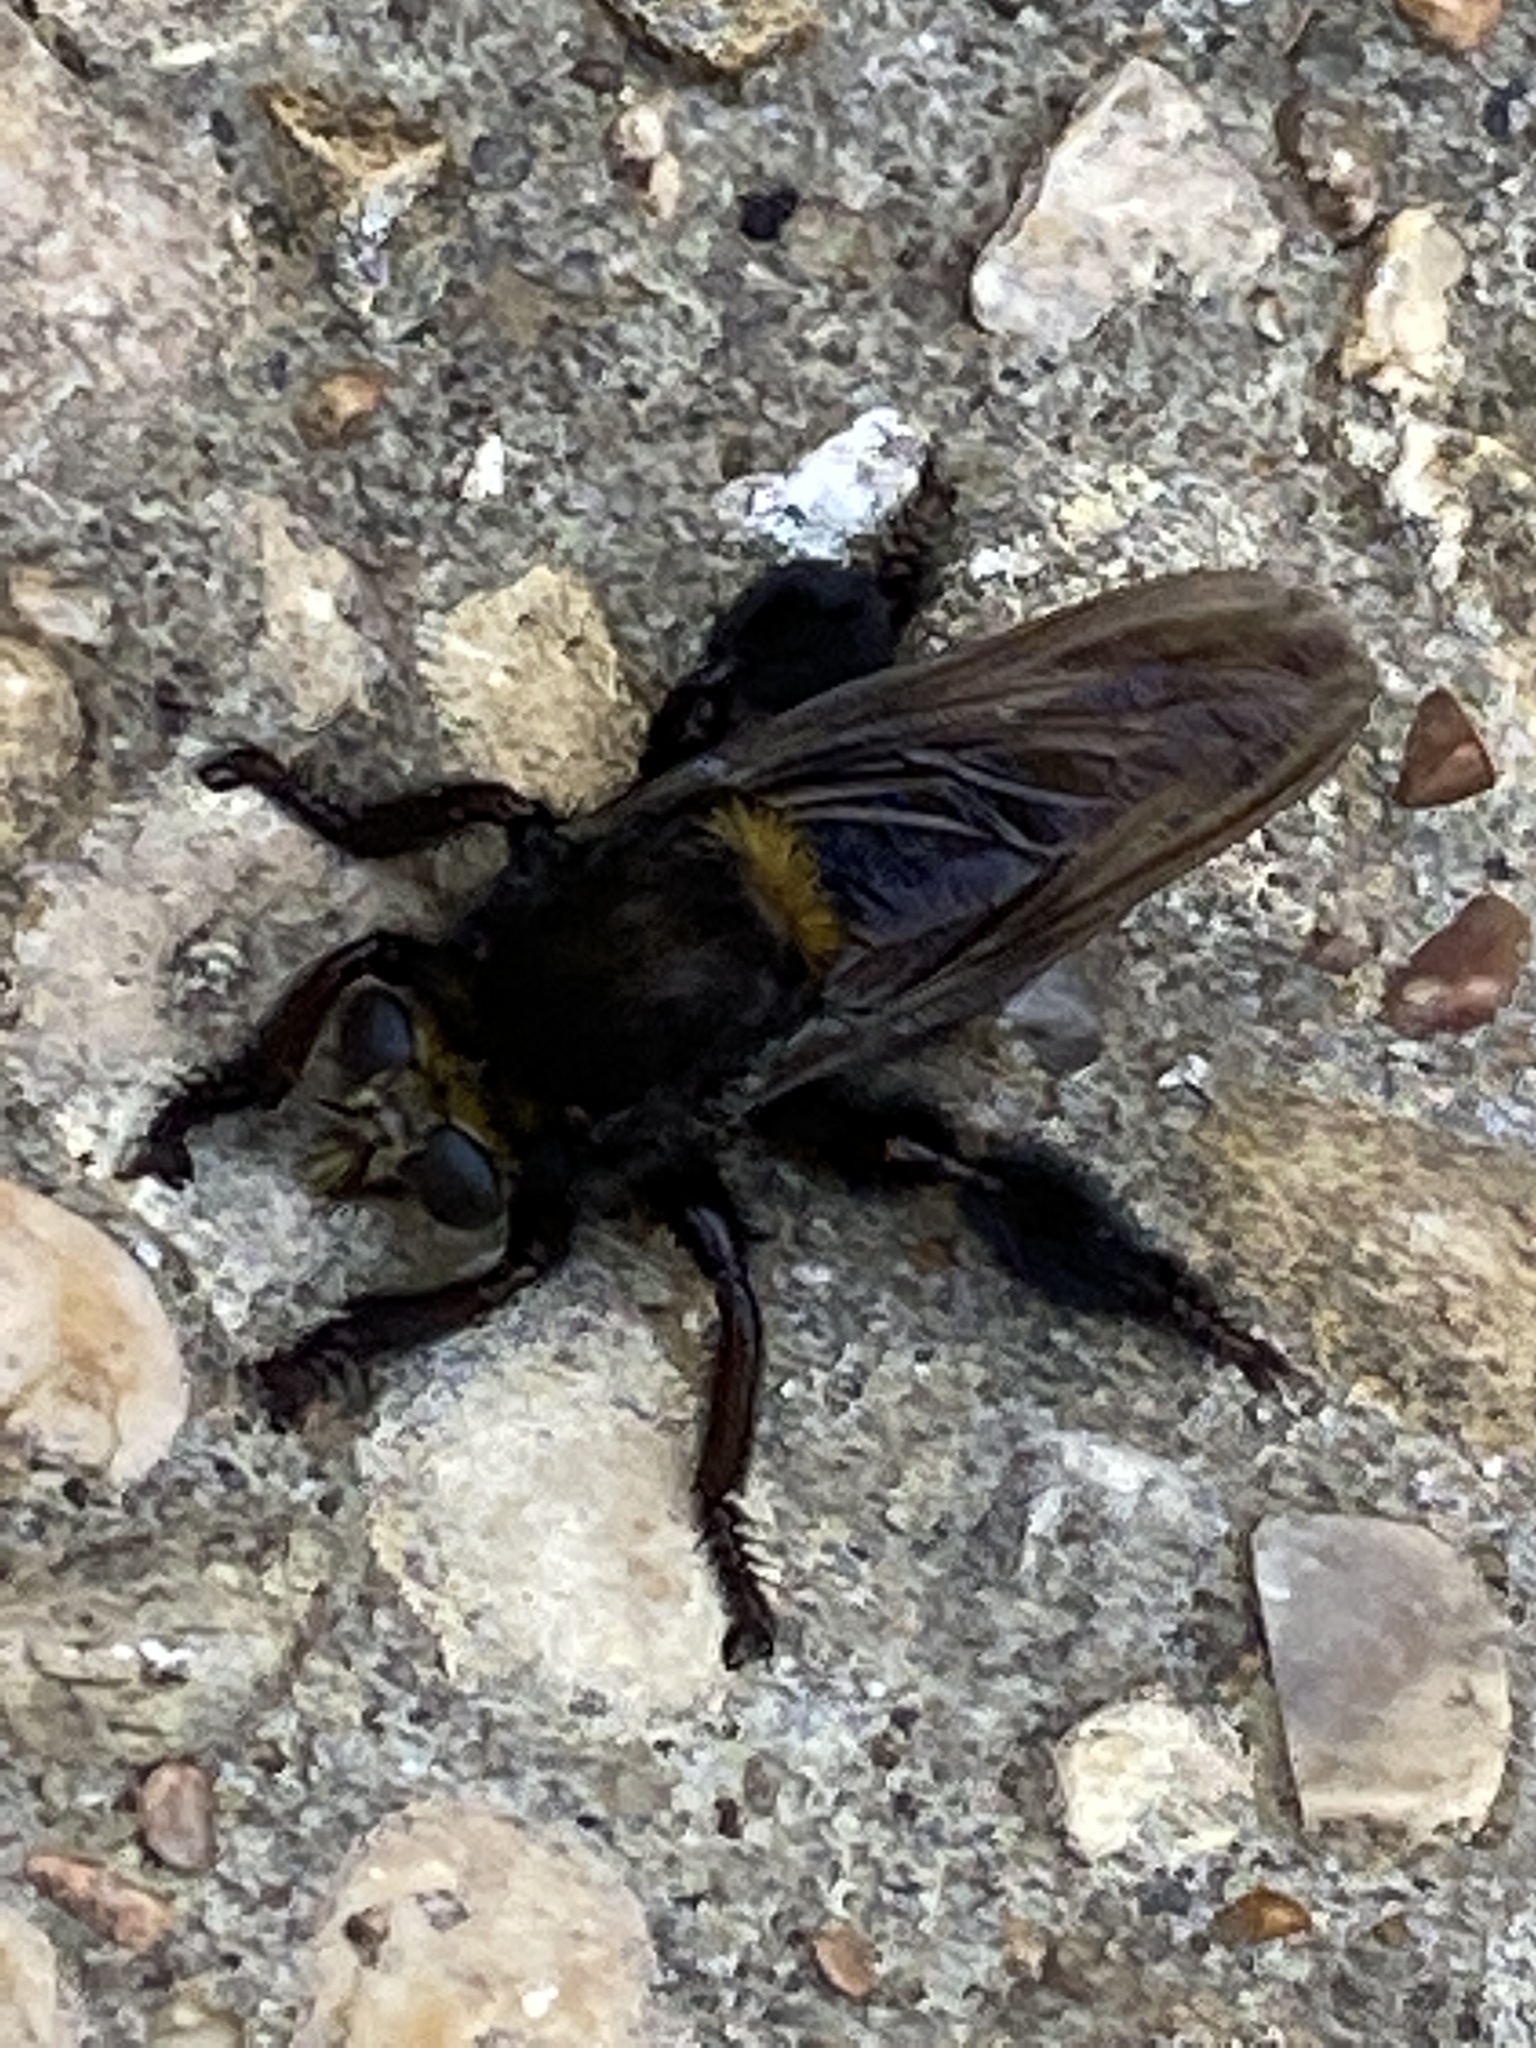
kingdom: Animalia
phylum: Arthropoda
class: Insecta
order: Diptera
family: Asilidae
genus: Mallophora
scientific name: Mallophora leschenaultii
